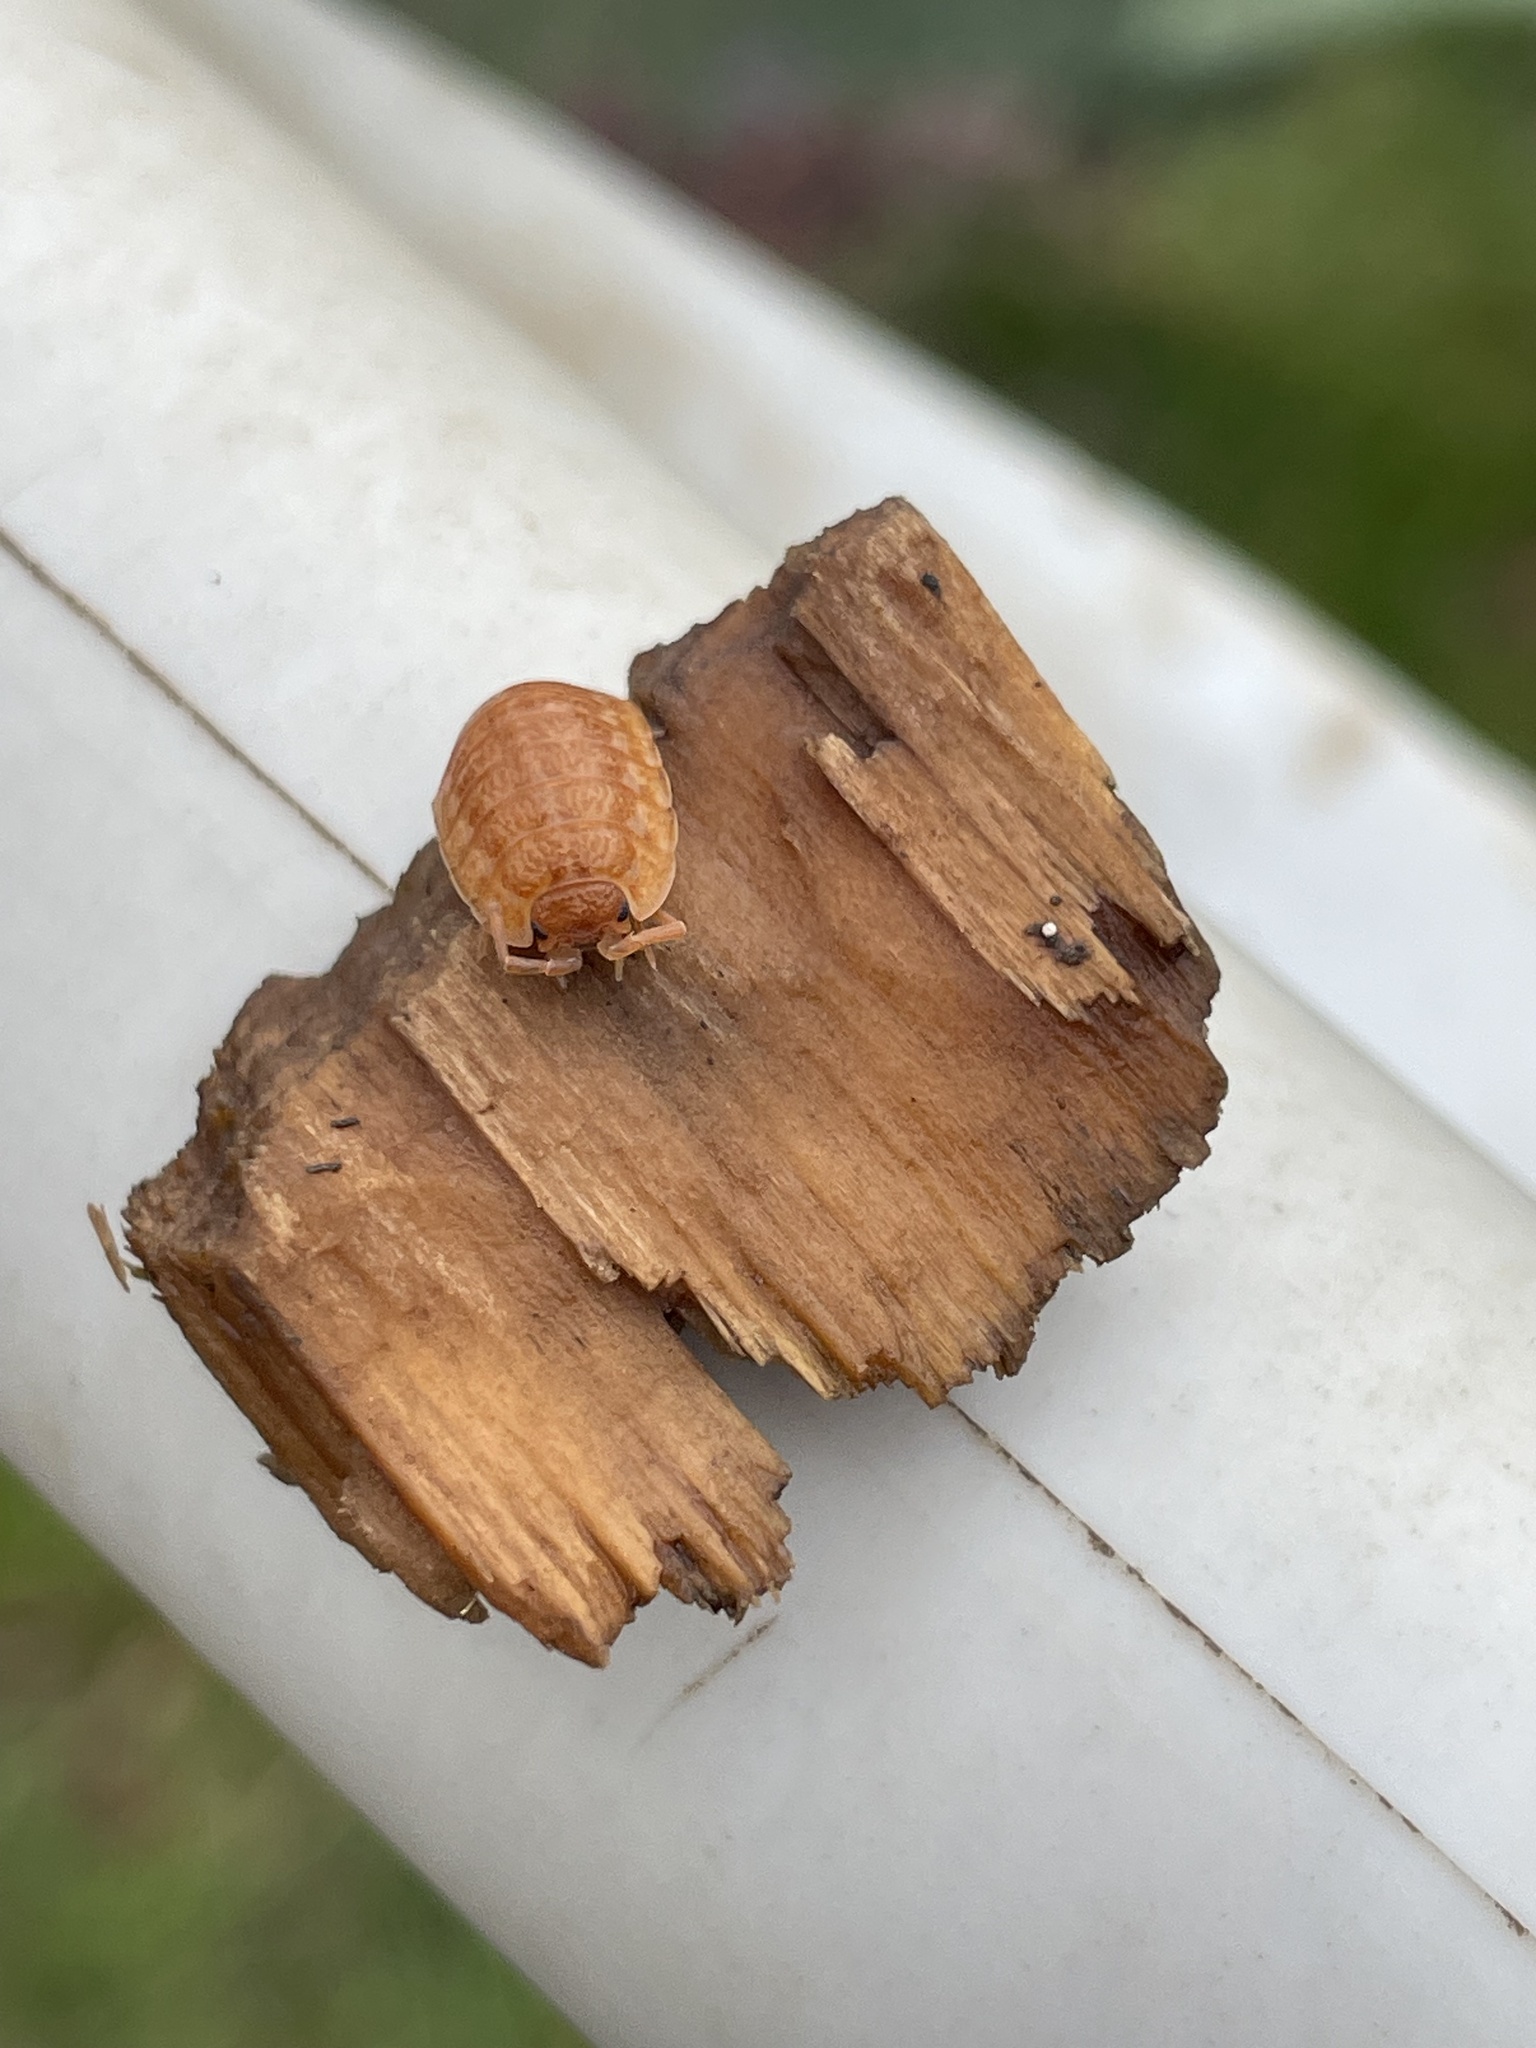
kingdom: Animalia
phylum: Arthropoda
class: Malacostraca
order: Isopoda
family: Trachelipodidae
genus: Trachelipus
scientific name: Trachelipus rathkii
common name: Isopod
